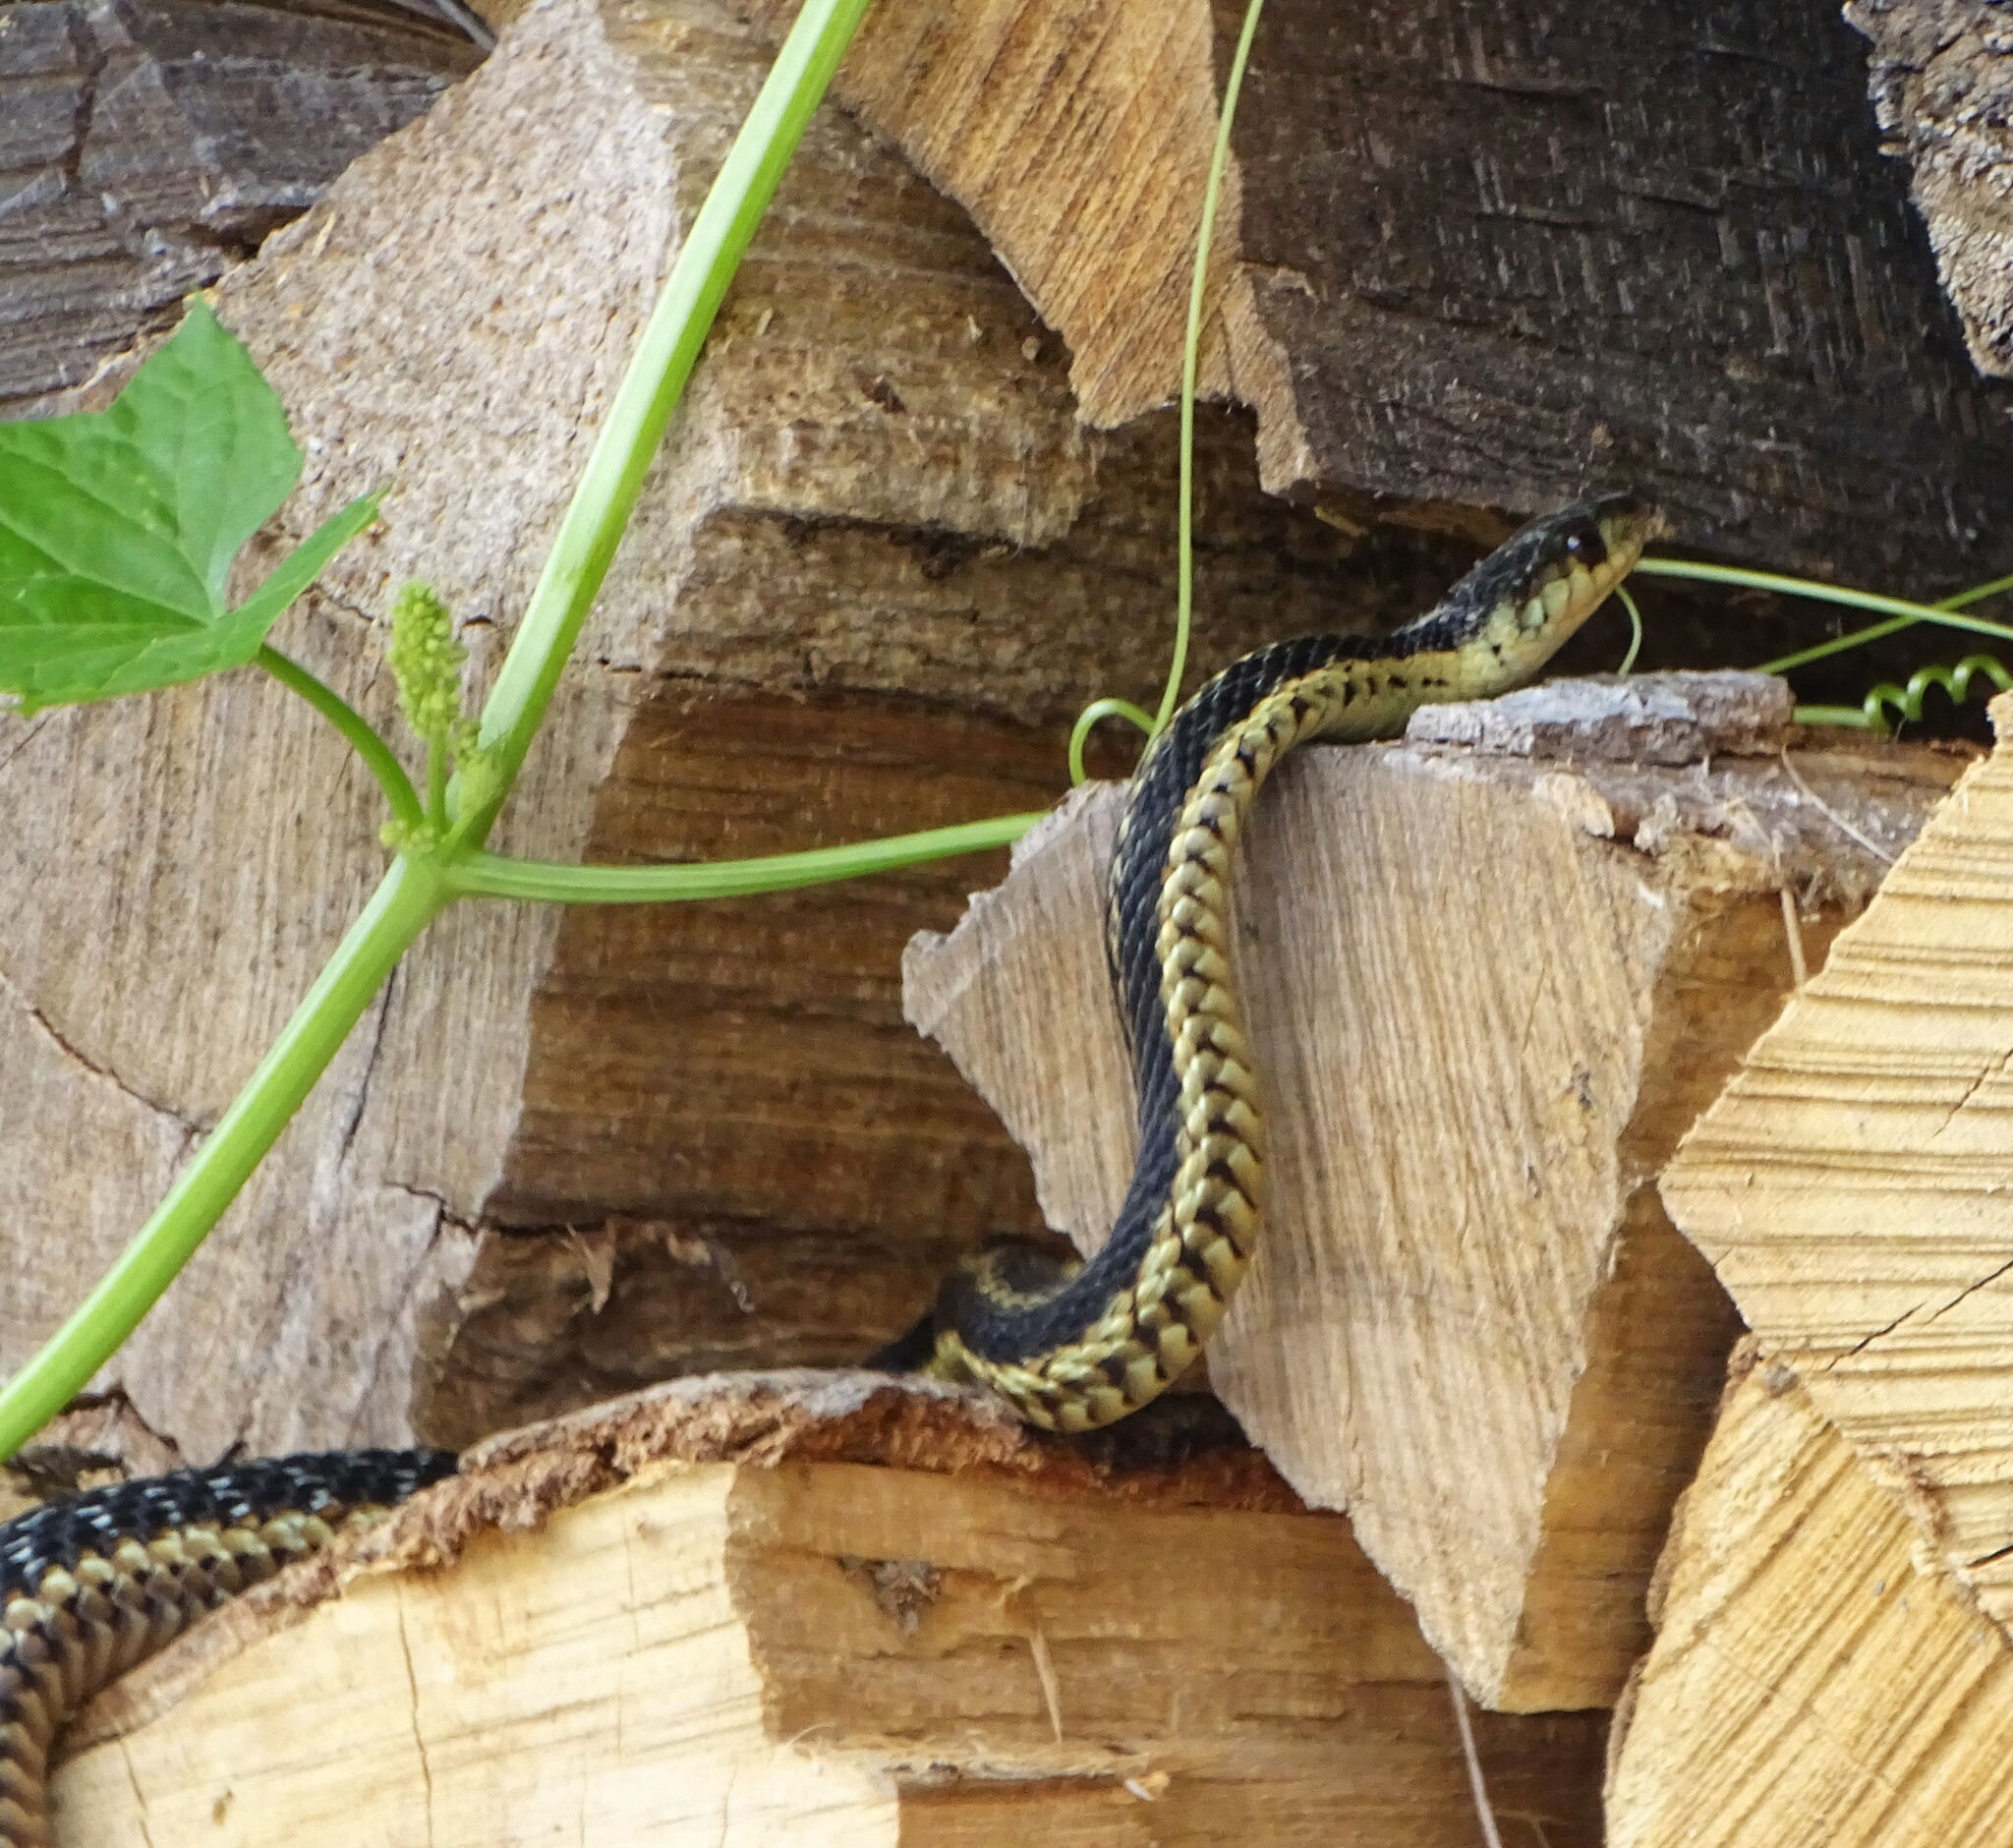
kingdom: Animalia
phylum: Chordata
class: Squamata
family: Colubridae
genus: Thamnophis
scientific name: Thamnophis sirtalis
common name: Common garter snake
